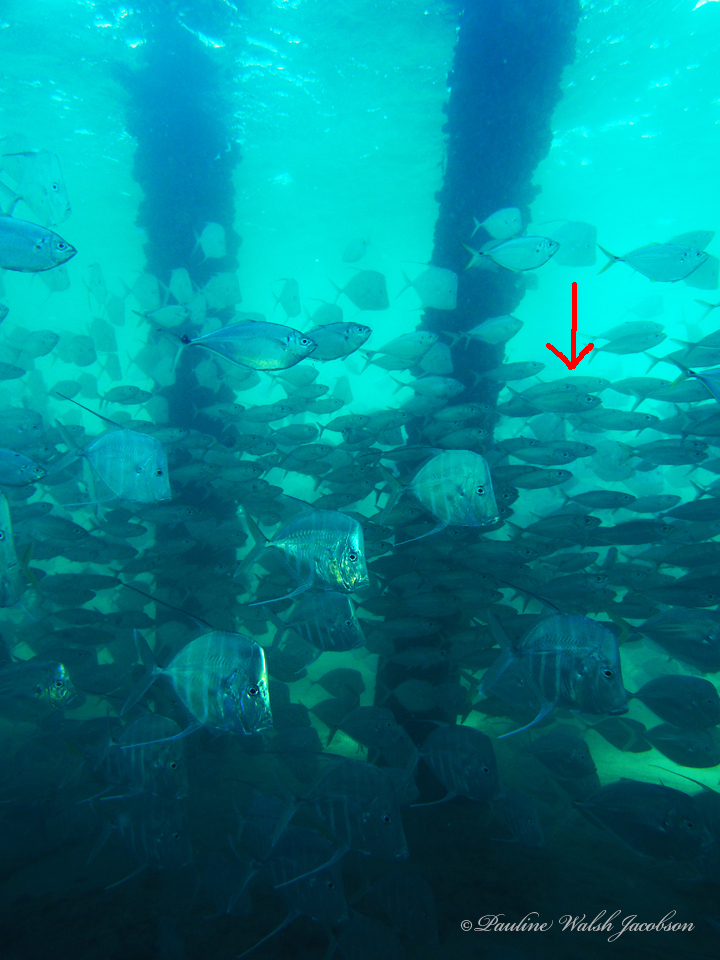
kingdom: Animalia
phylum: Chordata
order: Perciformes
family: Carangidae
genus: Selar
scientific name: Selar crumenophthalmus
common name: Bigeye scad
